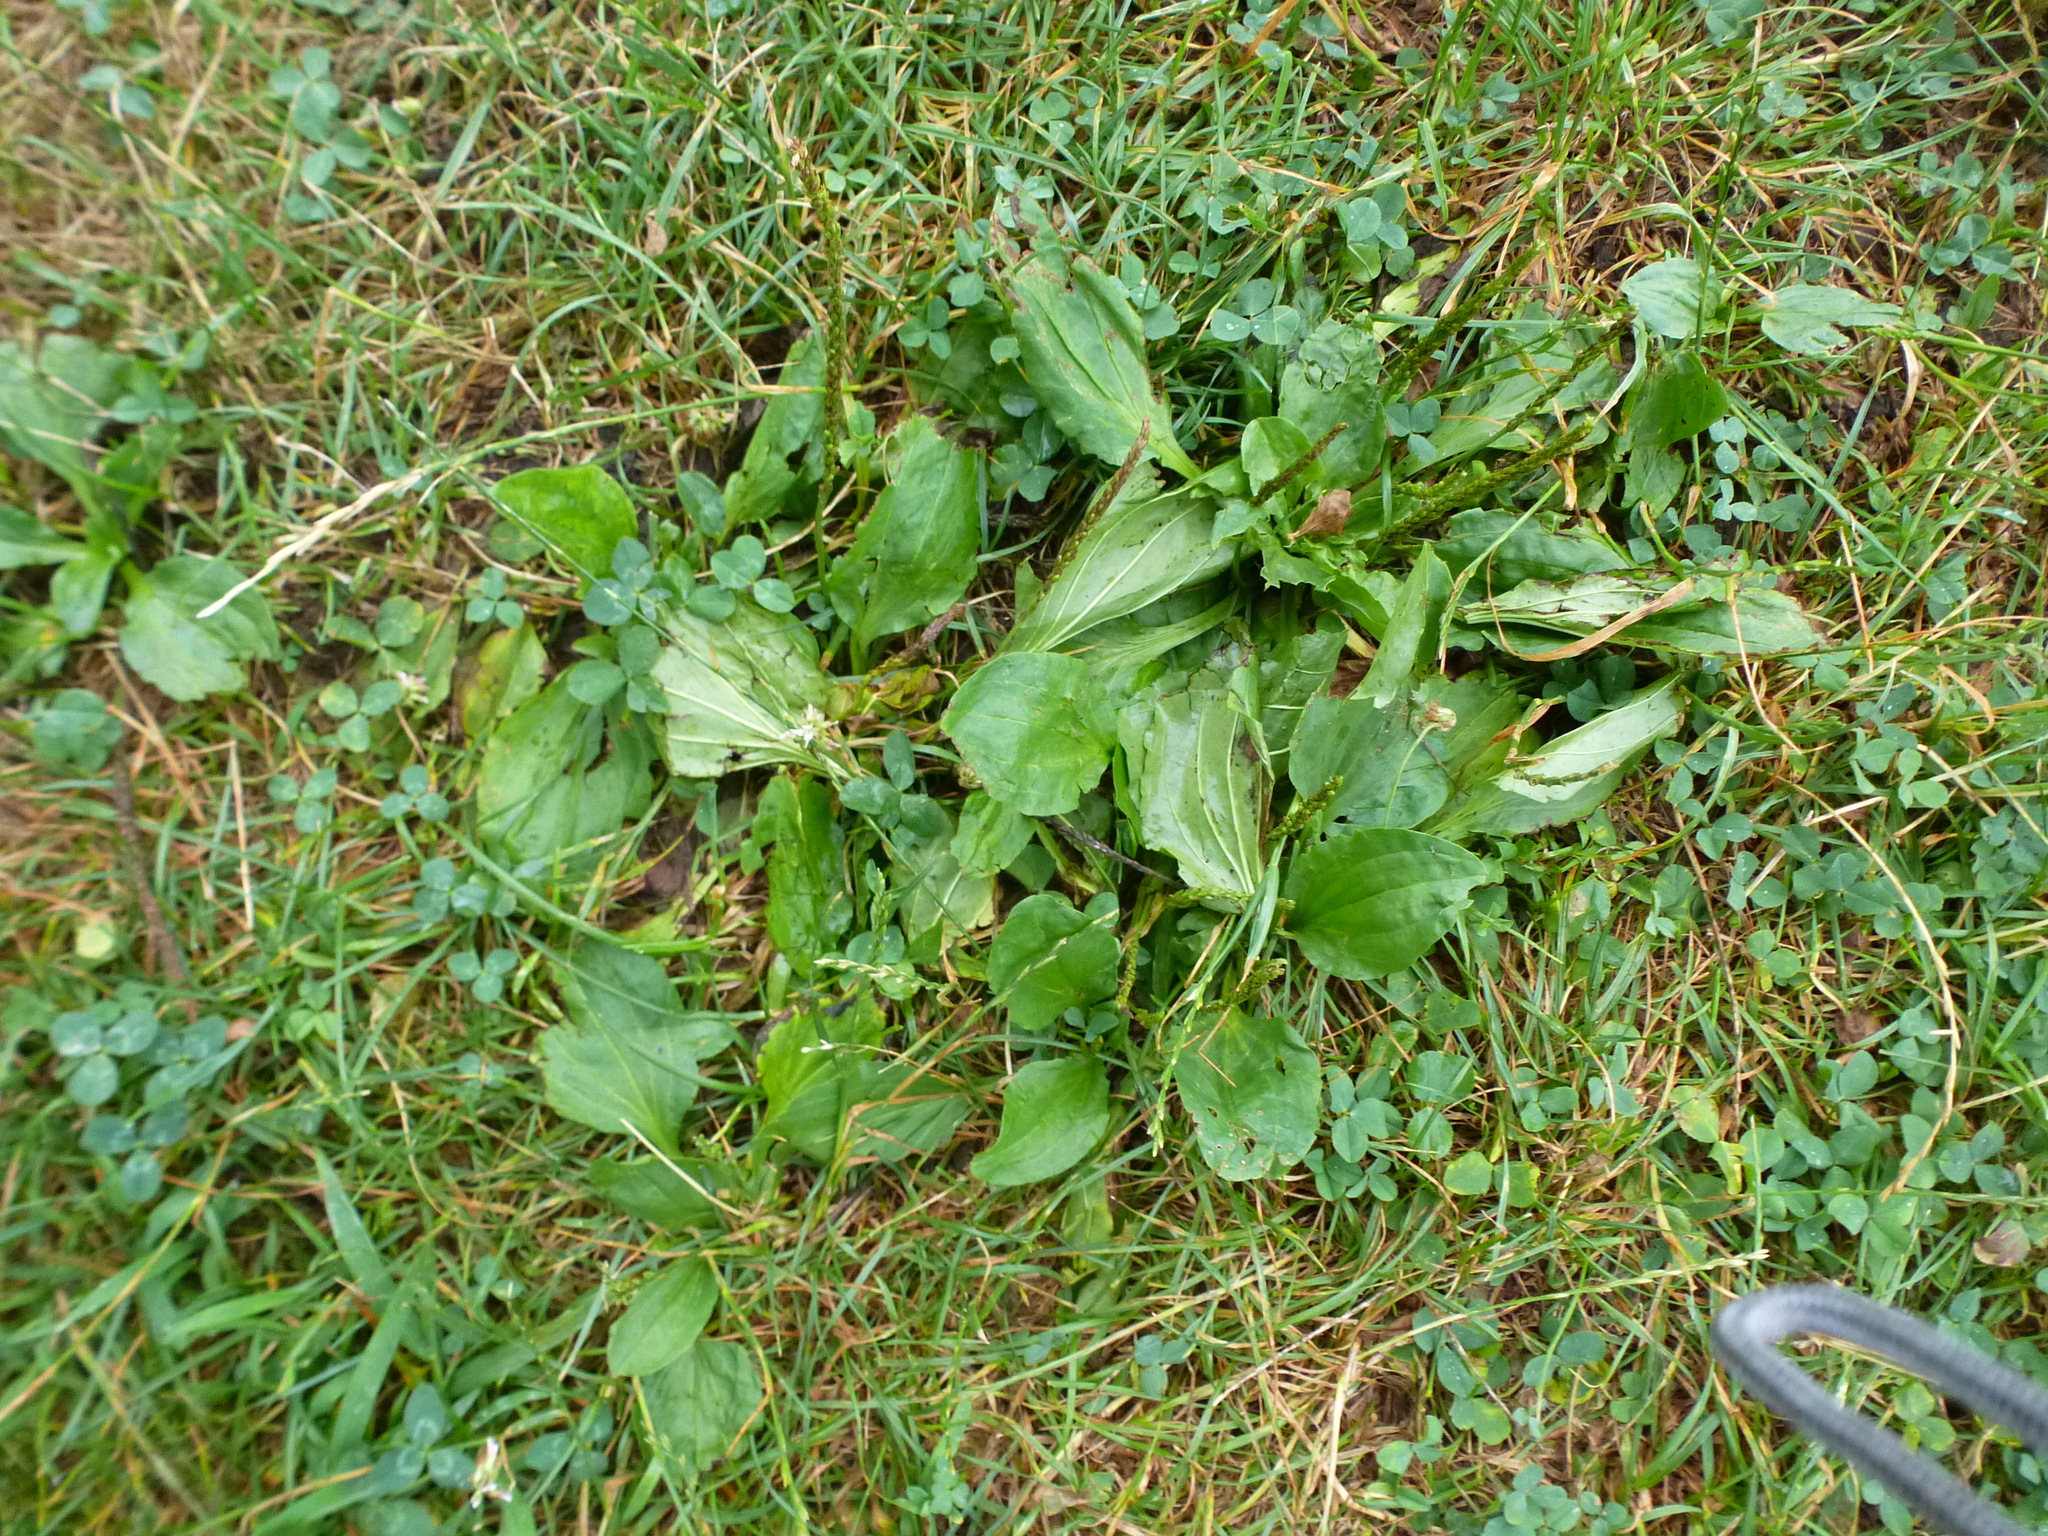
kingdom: Plantae
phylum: Tracheophyta
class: Magnoliopsida
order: Lamiales
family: Plantaginaceae
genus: Plantago
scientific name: Plantago rugelii
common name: American plantain
